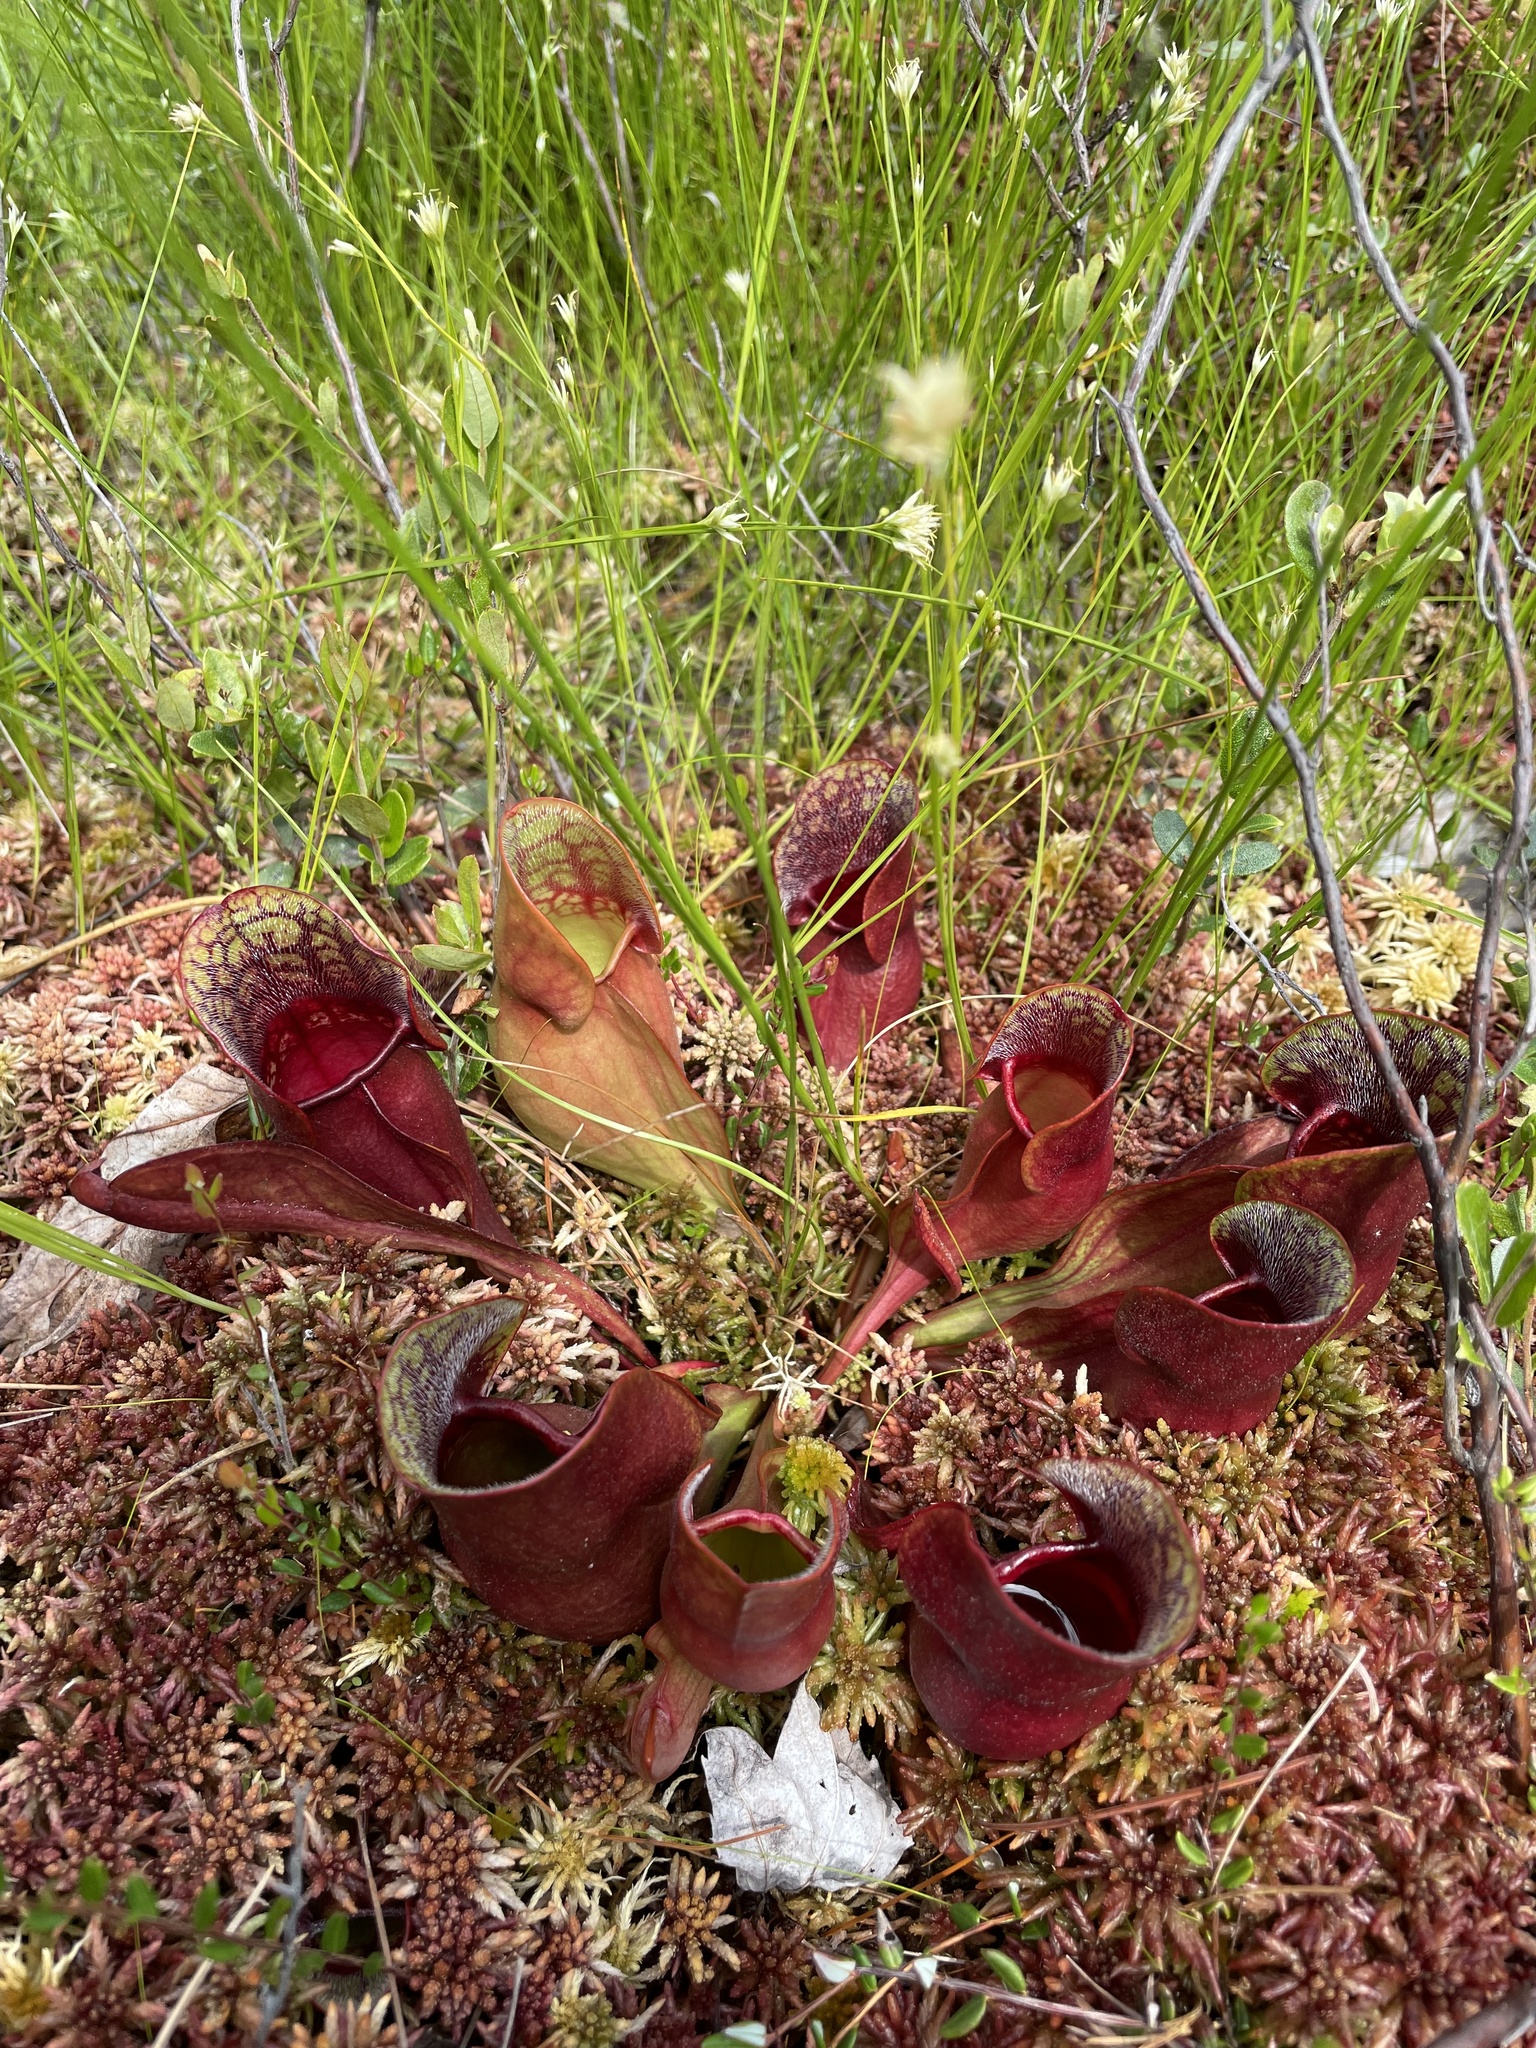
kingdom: Plantae
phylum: Tracheophyta
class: Magnoliopsida
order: Ericales
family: Sarraceniaceae
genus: Sarracenia
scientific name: Sarracenia purpurea
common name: Pitcherplant
